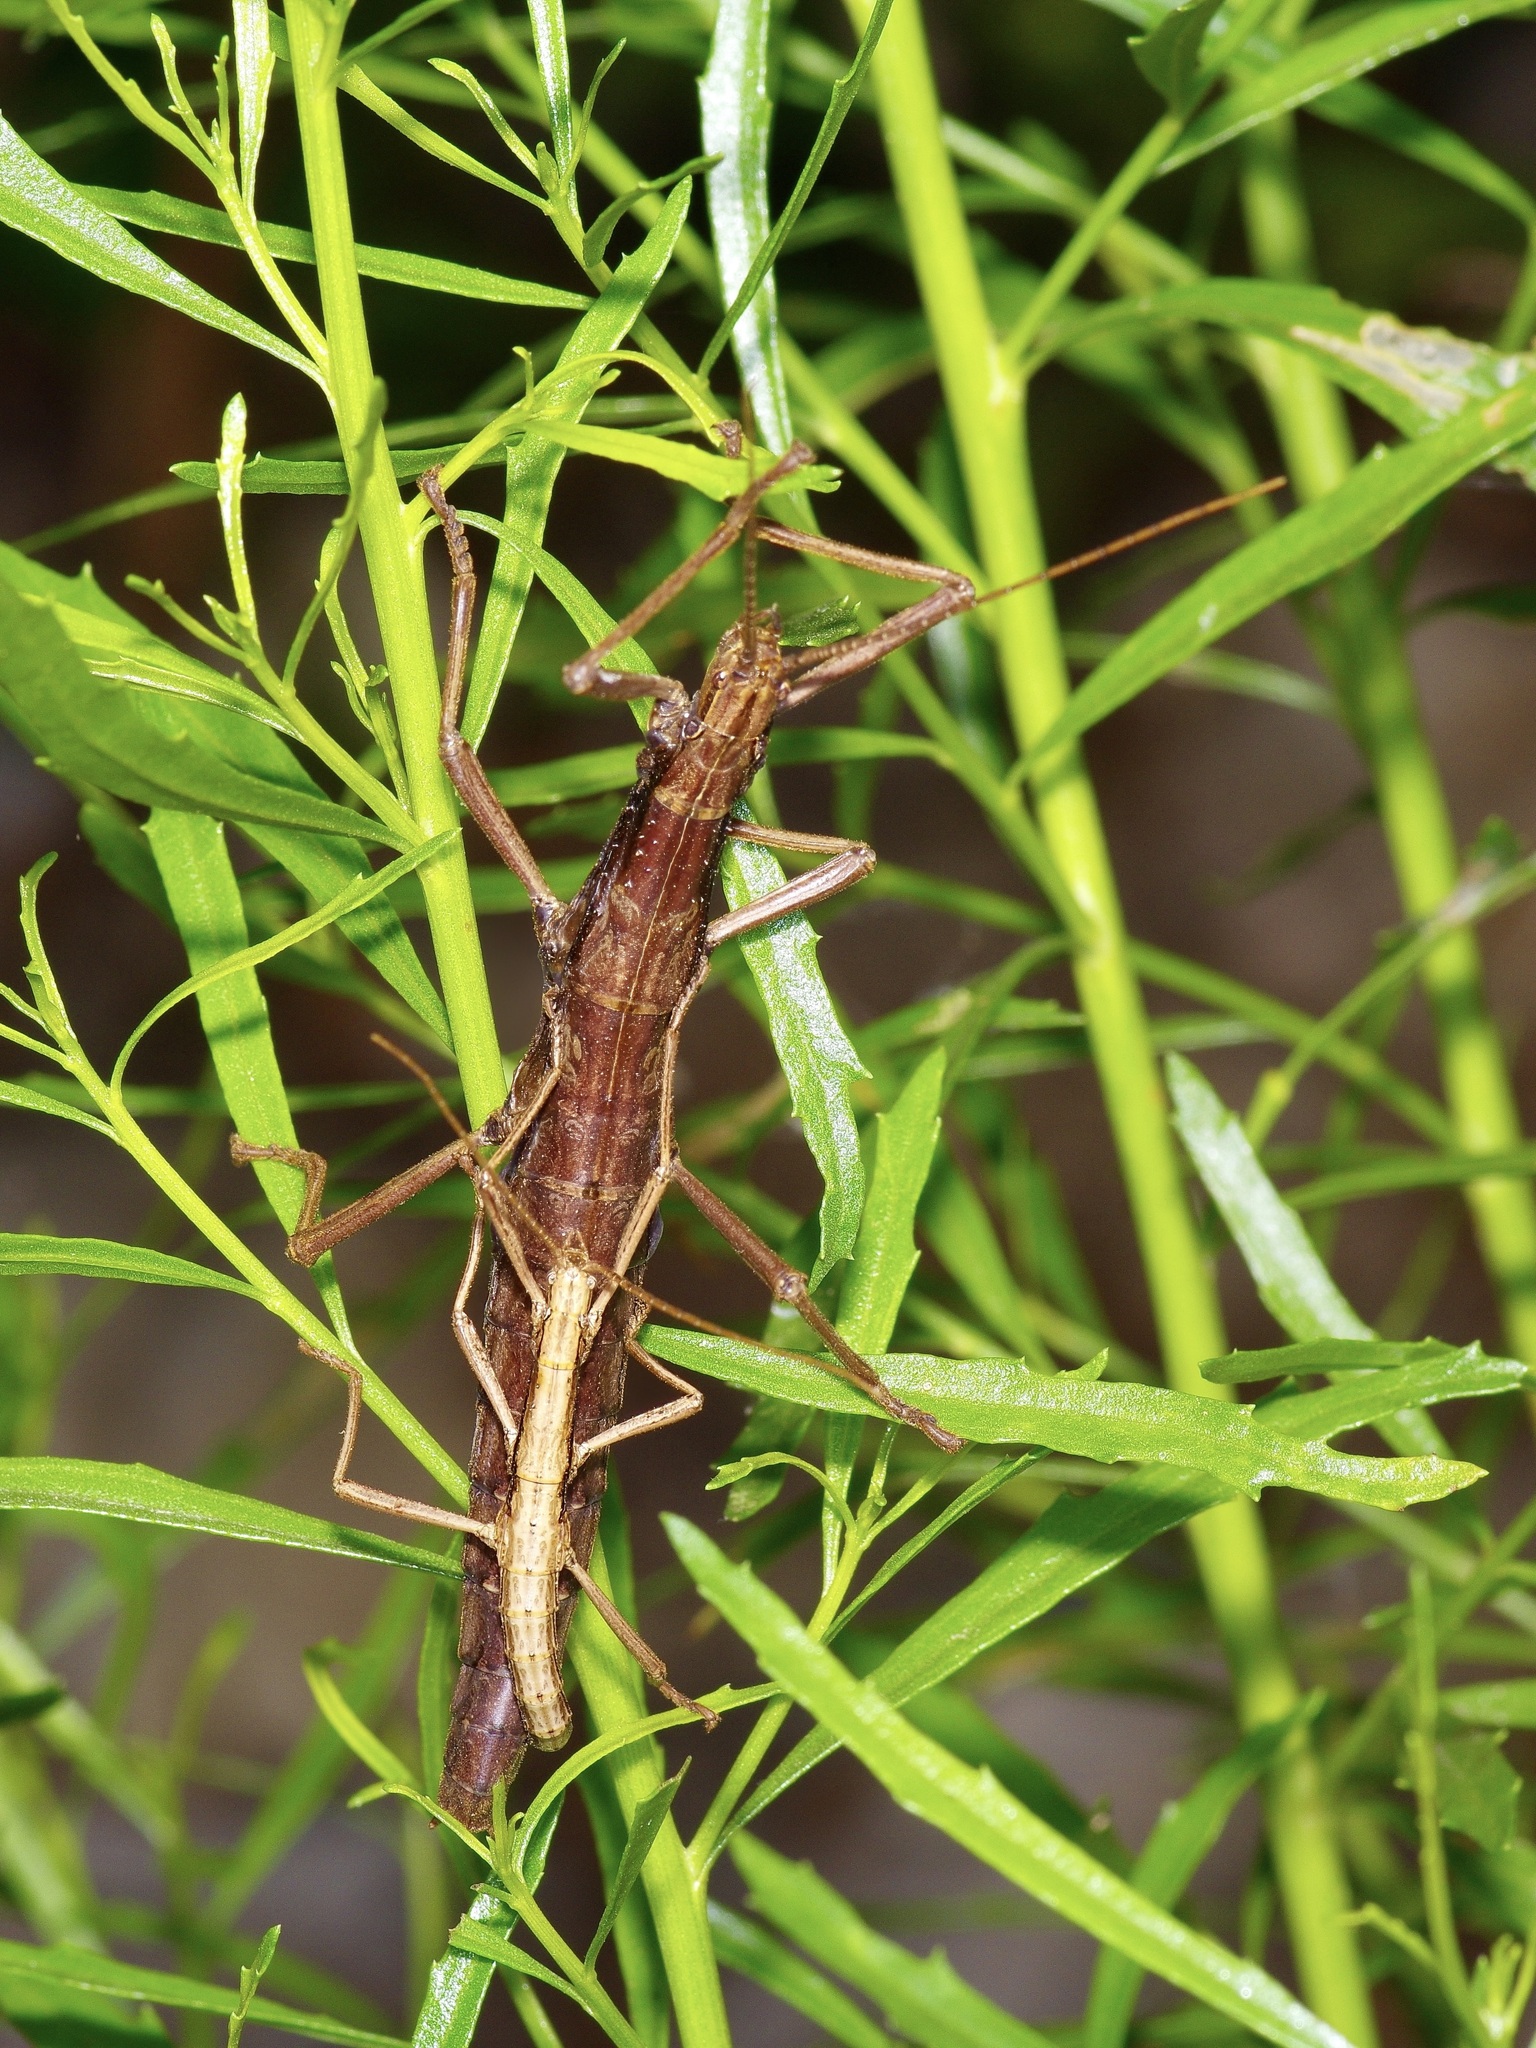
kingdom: Animalia
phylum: Arthropoda
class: Insecta
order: Phasmida
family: Pseudophasmatidae
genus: Anisomorpha
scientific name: Anisomorpha ferruginea
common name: Dark walkingstick
